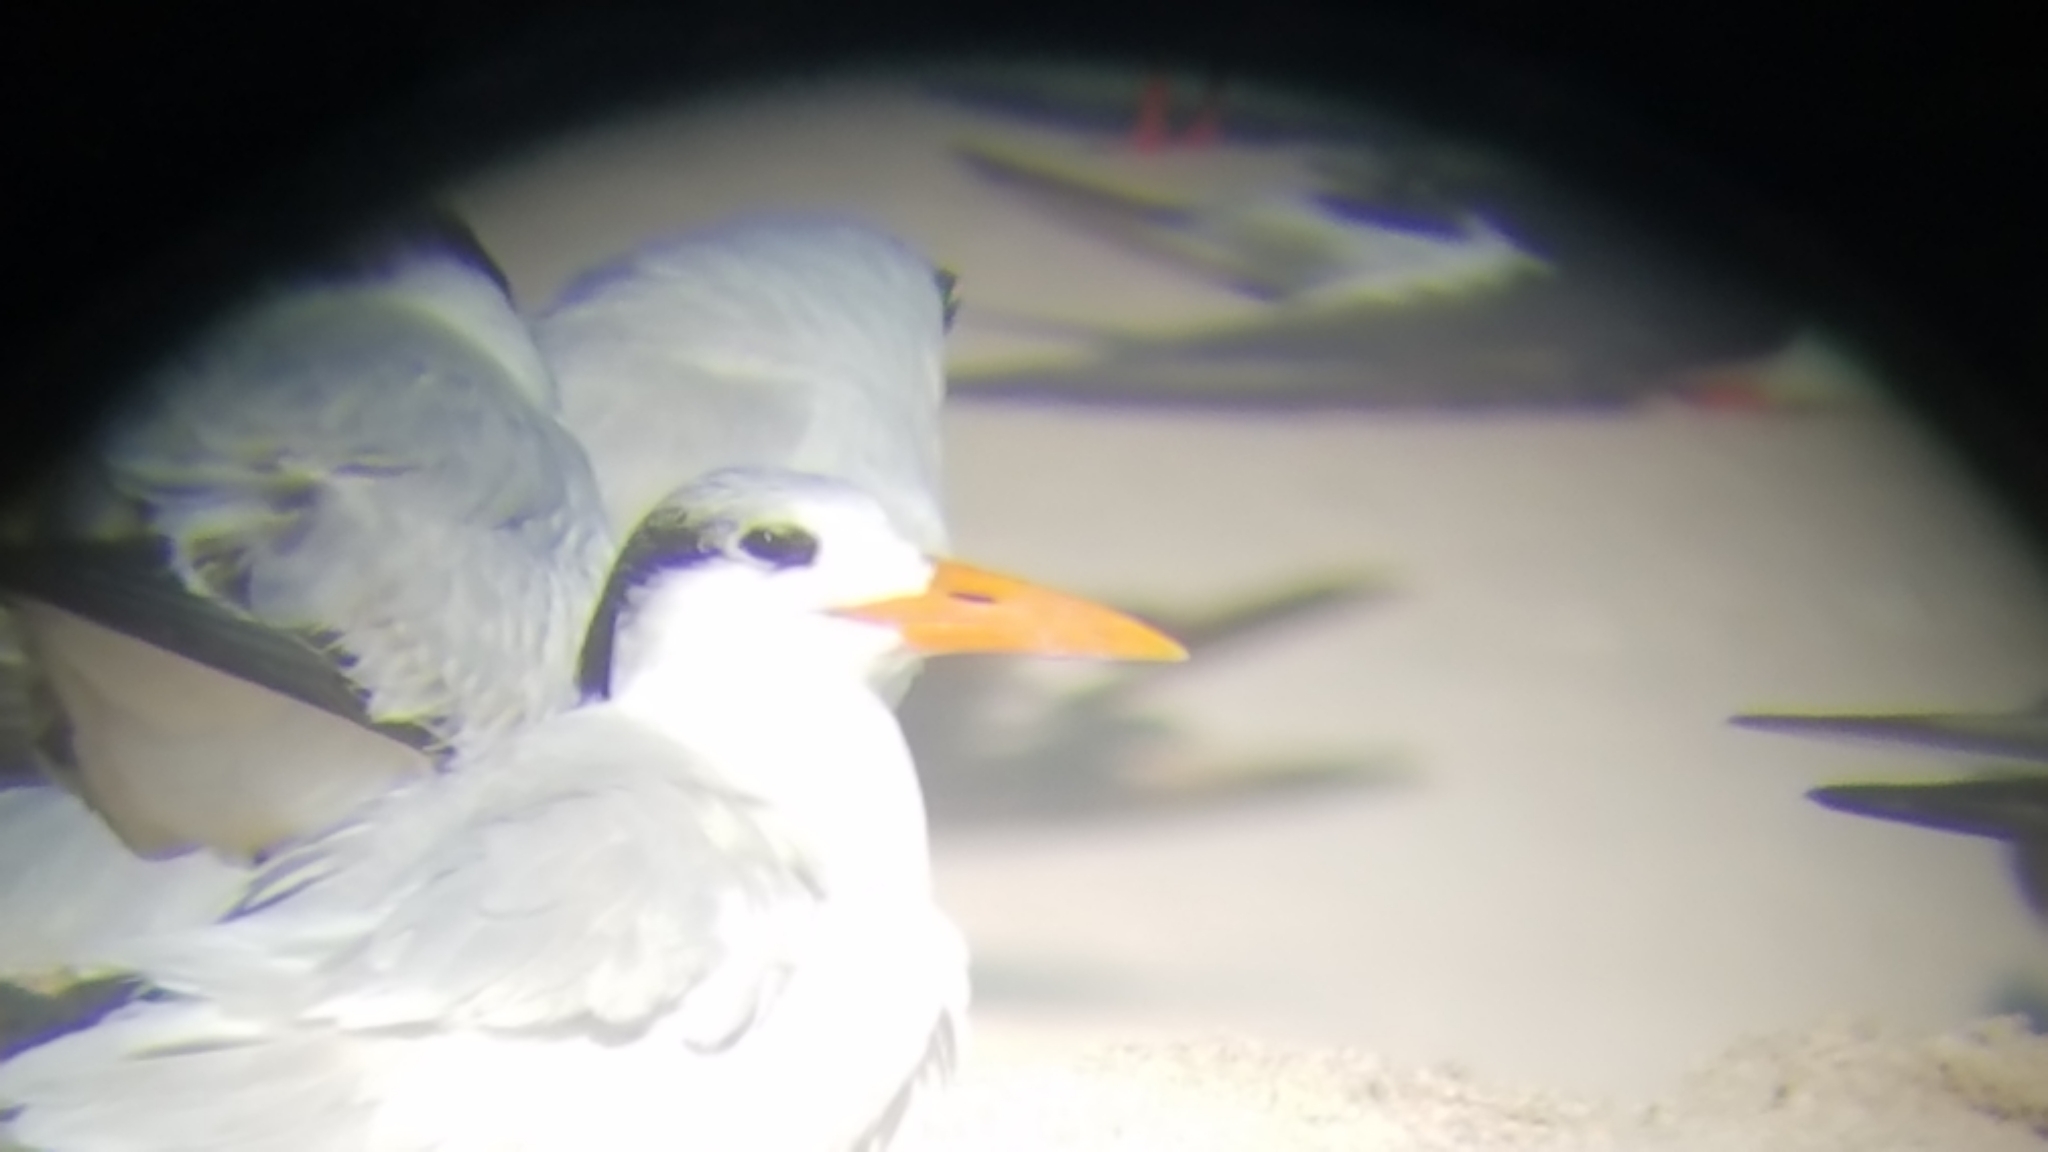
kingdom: Animalia
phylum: Chordata
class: Aves
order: Charadriiformes
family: Laridae
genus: Thalasseus
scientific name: Thalasseus maximus
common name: Royal tern
